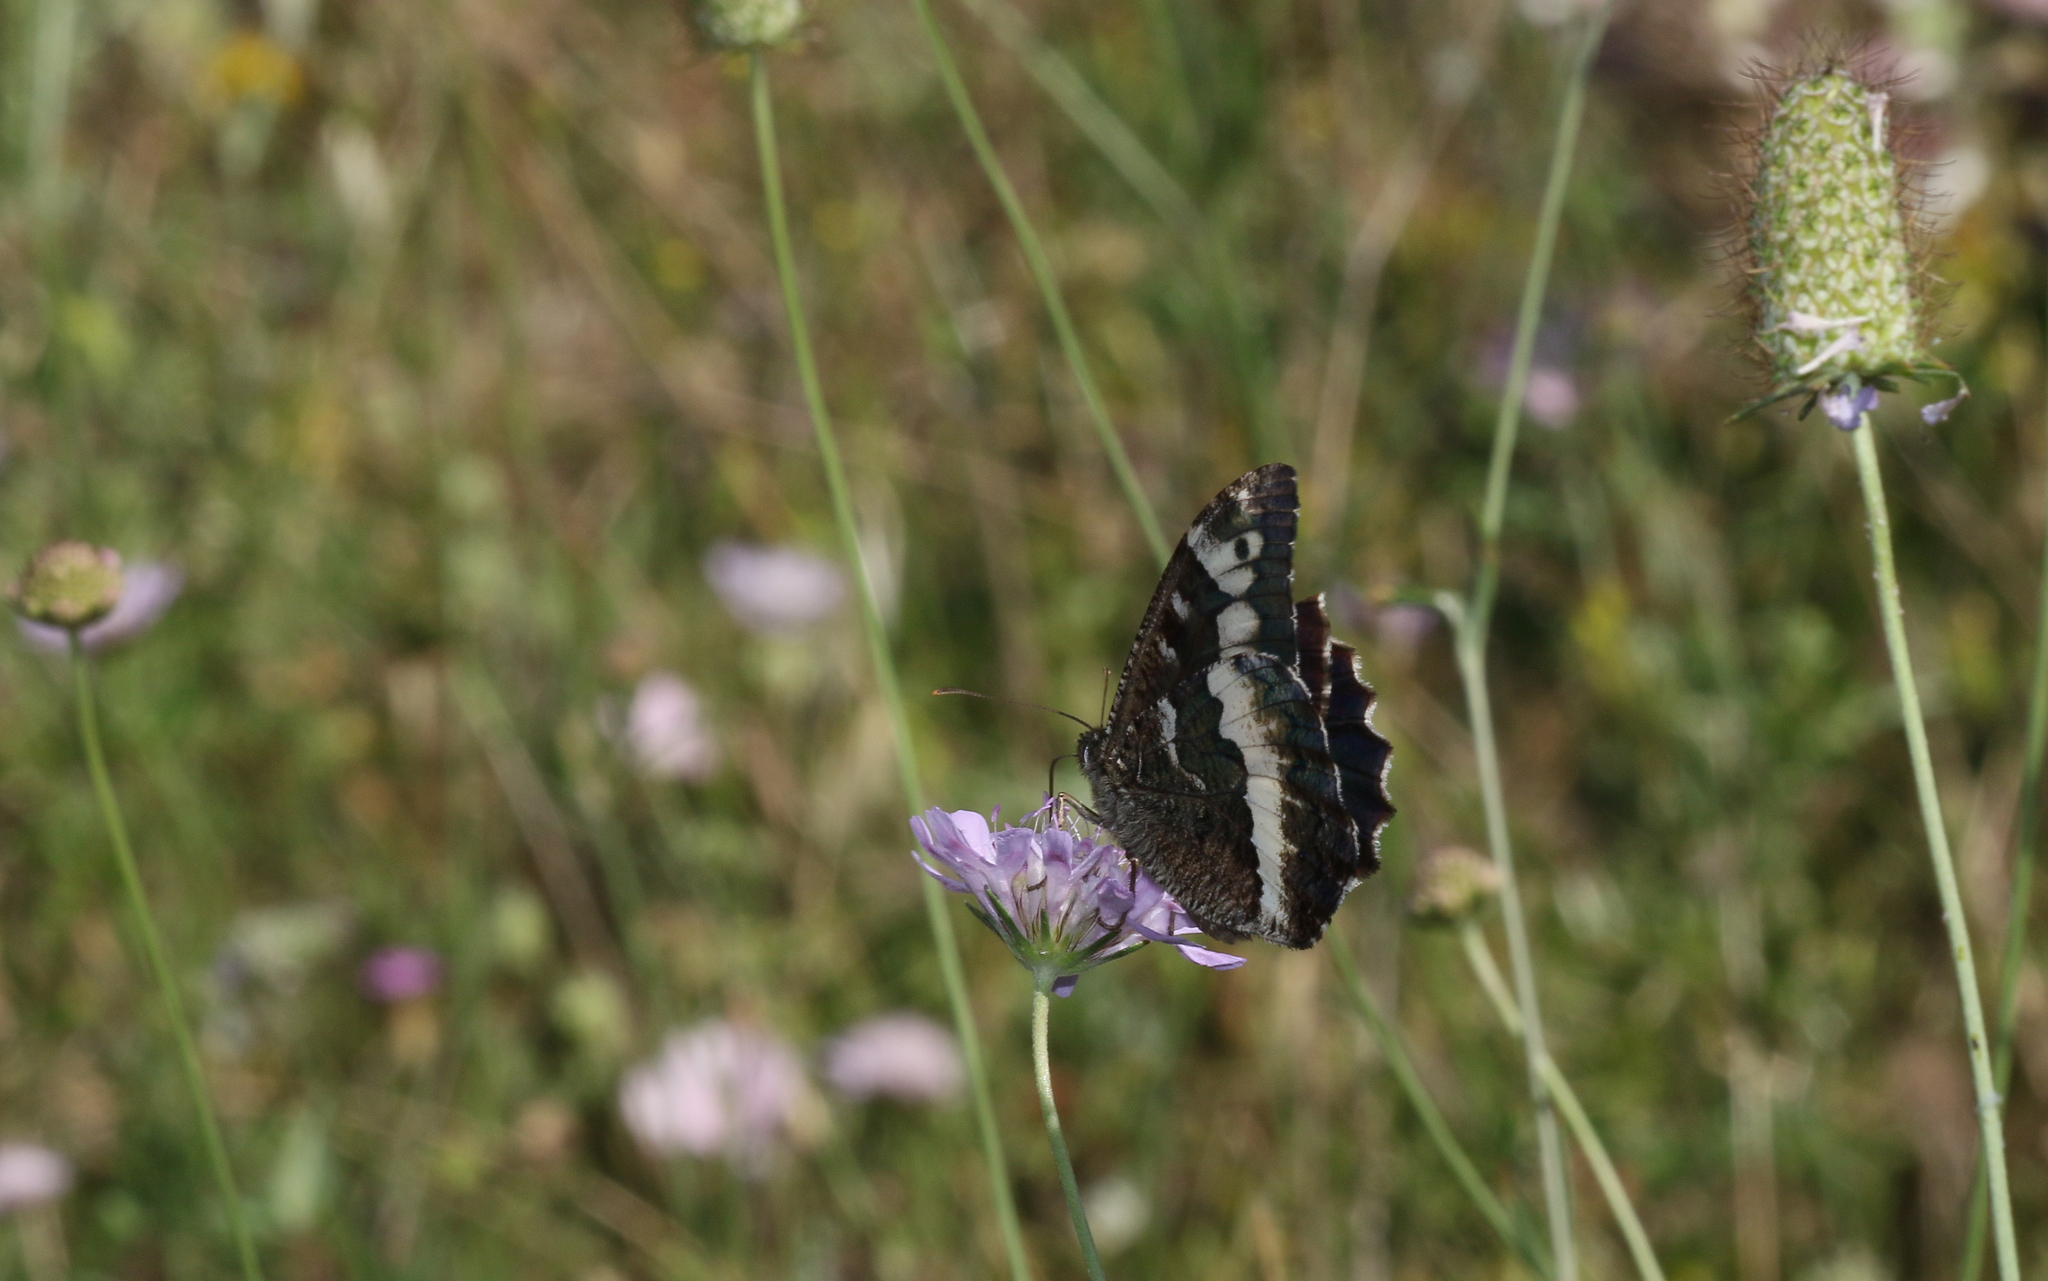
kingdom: Animalia
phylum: Arthropoda
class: Insecta
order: Lepidoptera
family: Lycaenidae
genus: Loweia
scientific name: Loweia tityrus
